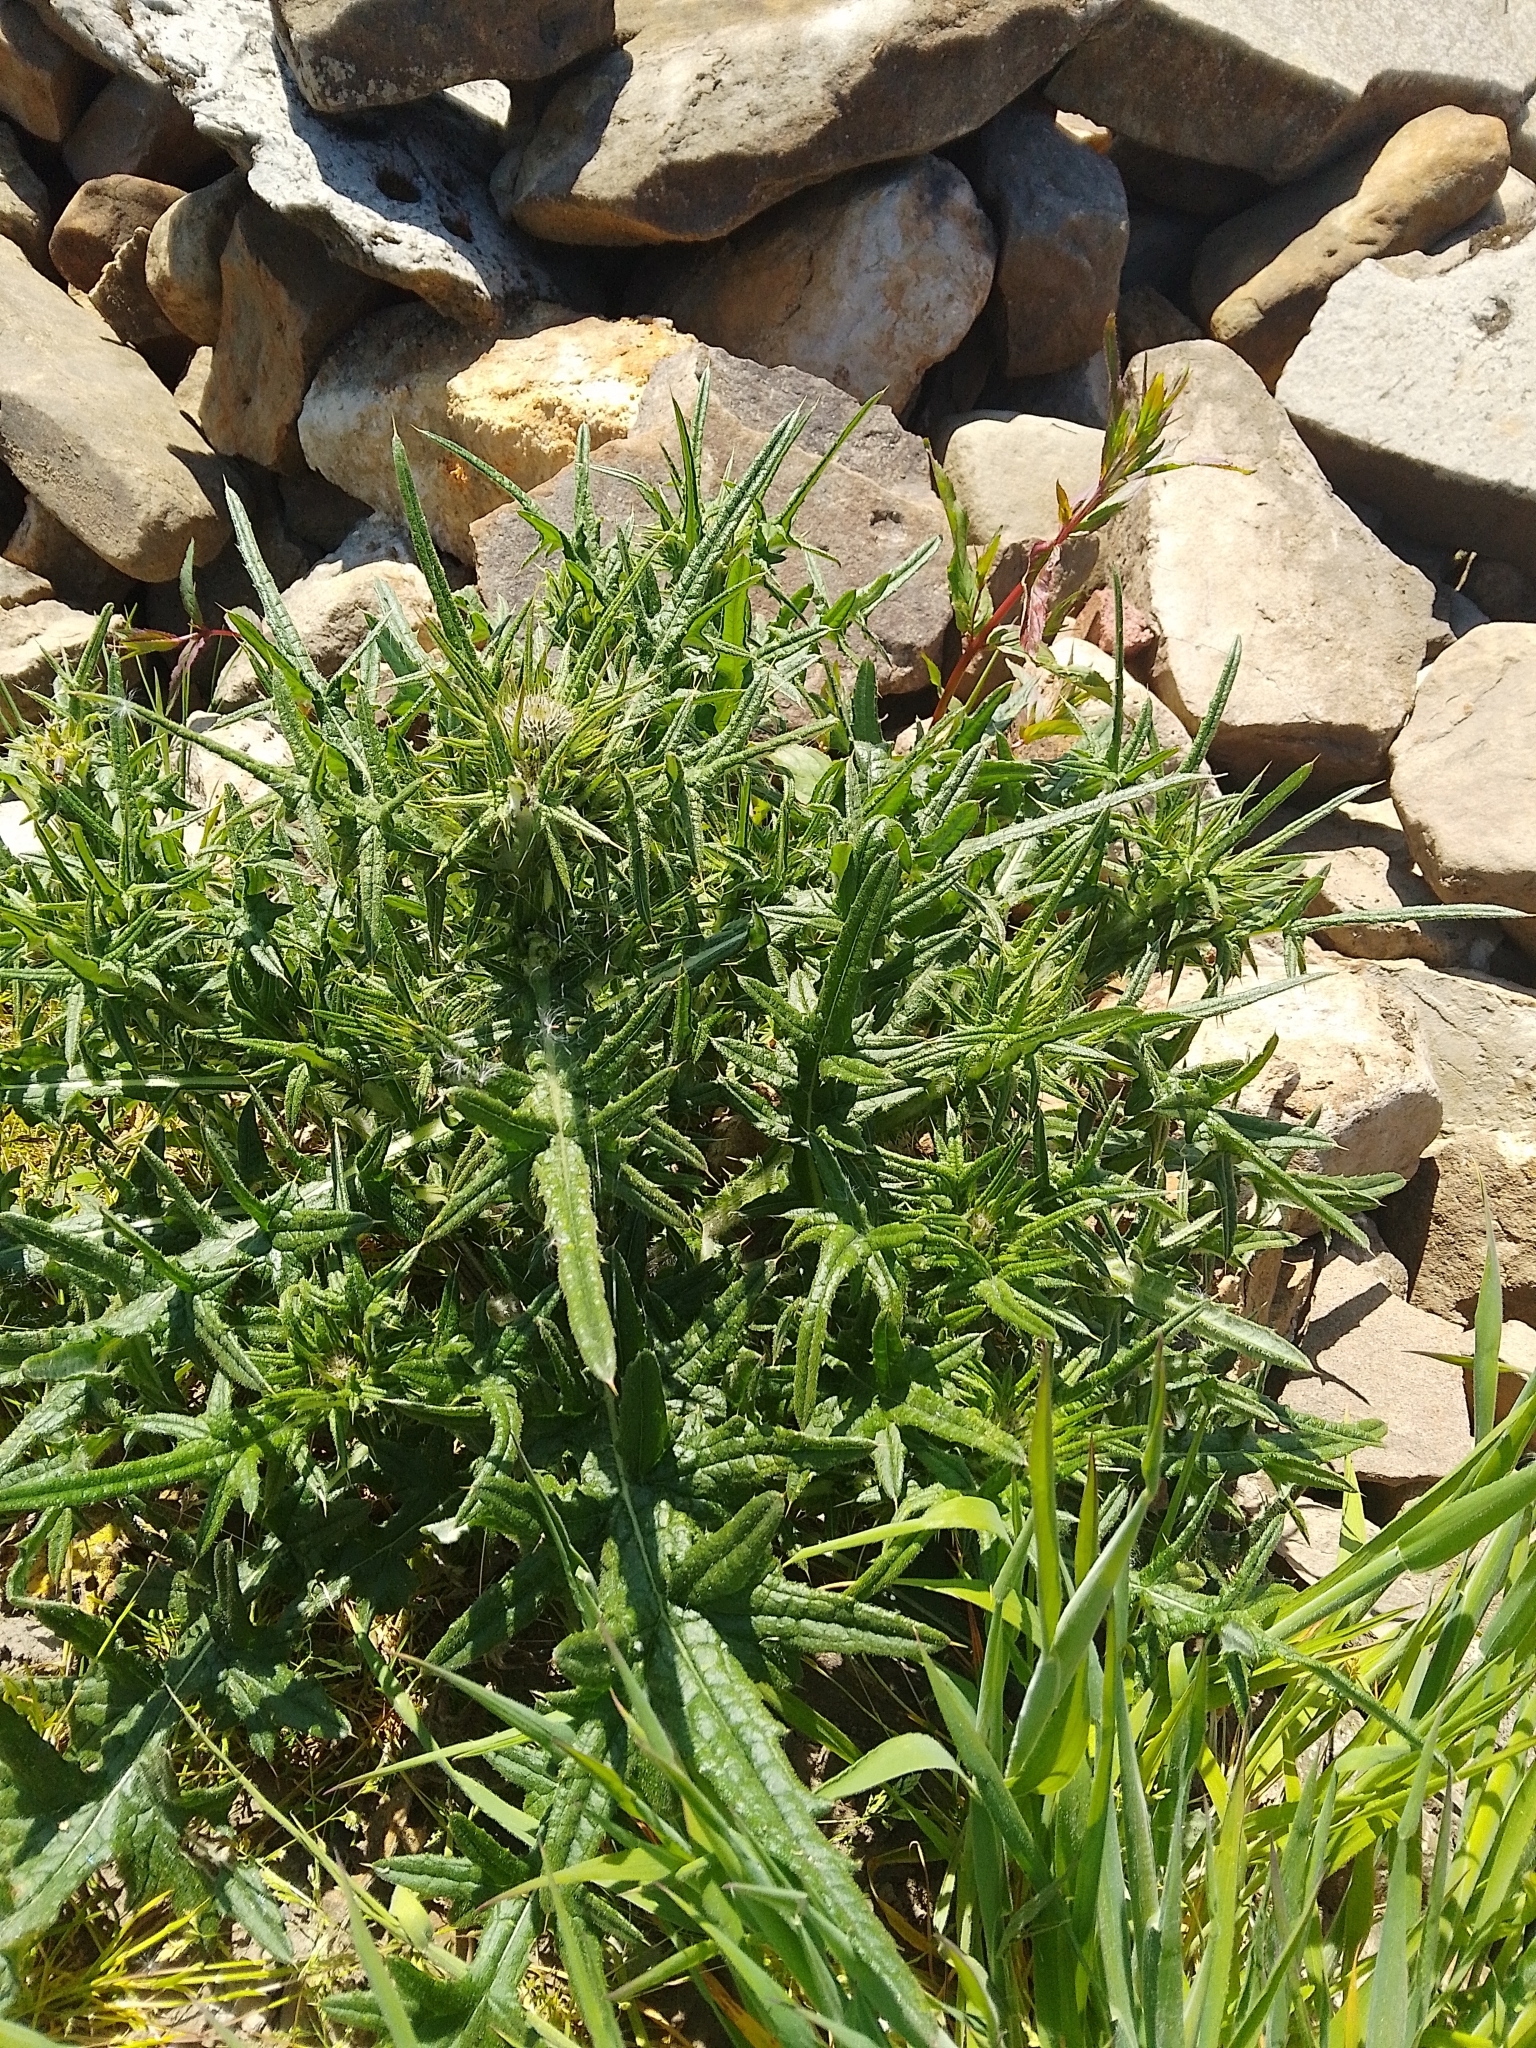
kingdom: Plantae
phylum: Tracheophyta
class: Magnoliopsida
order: Asterales
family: Asteraceae
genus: Cirsium
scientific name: Cirsium vulgare
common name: Bull thistle
